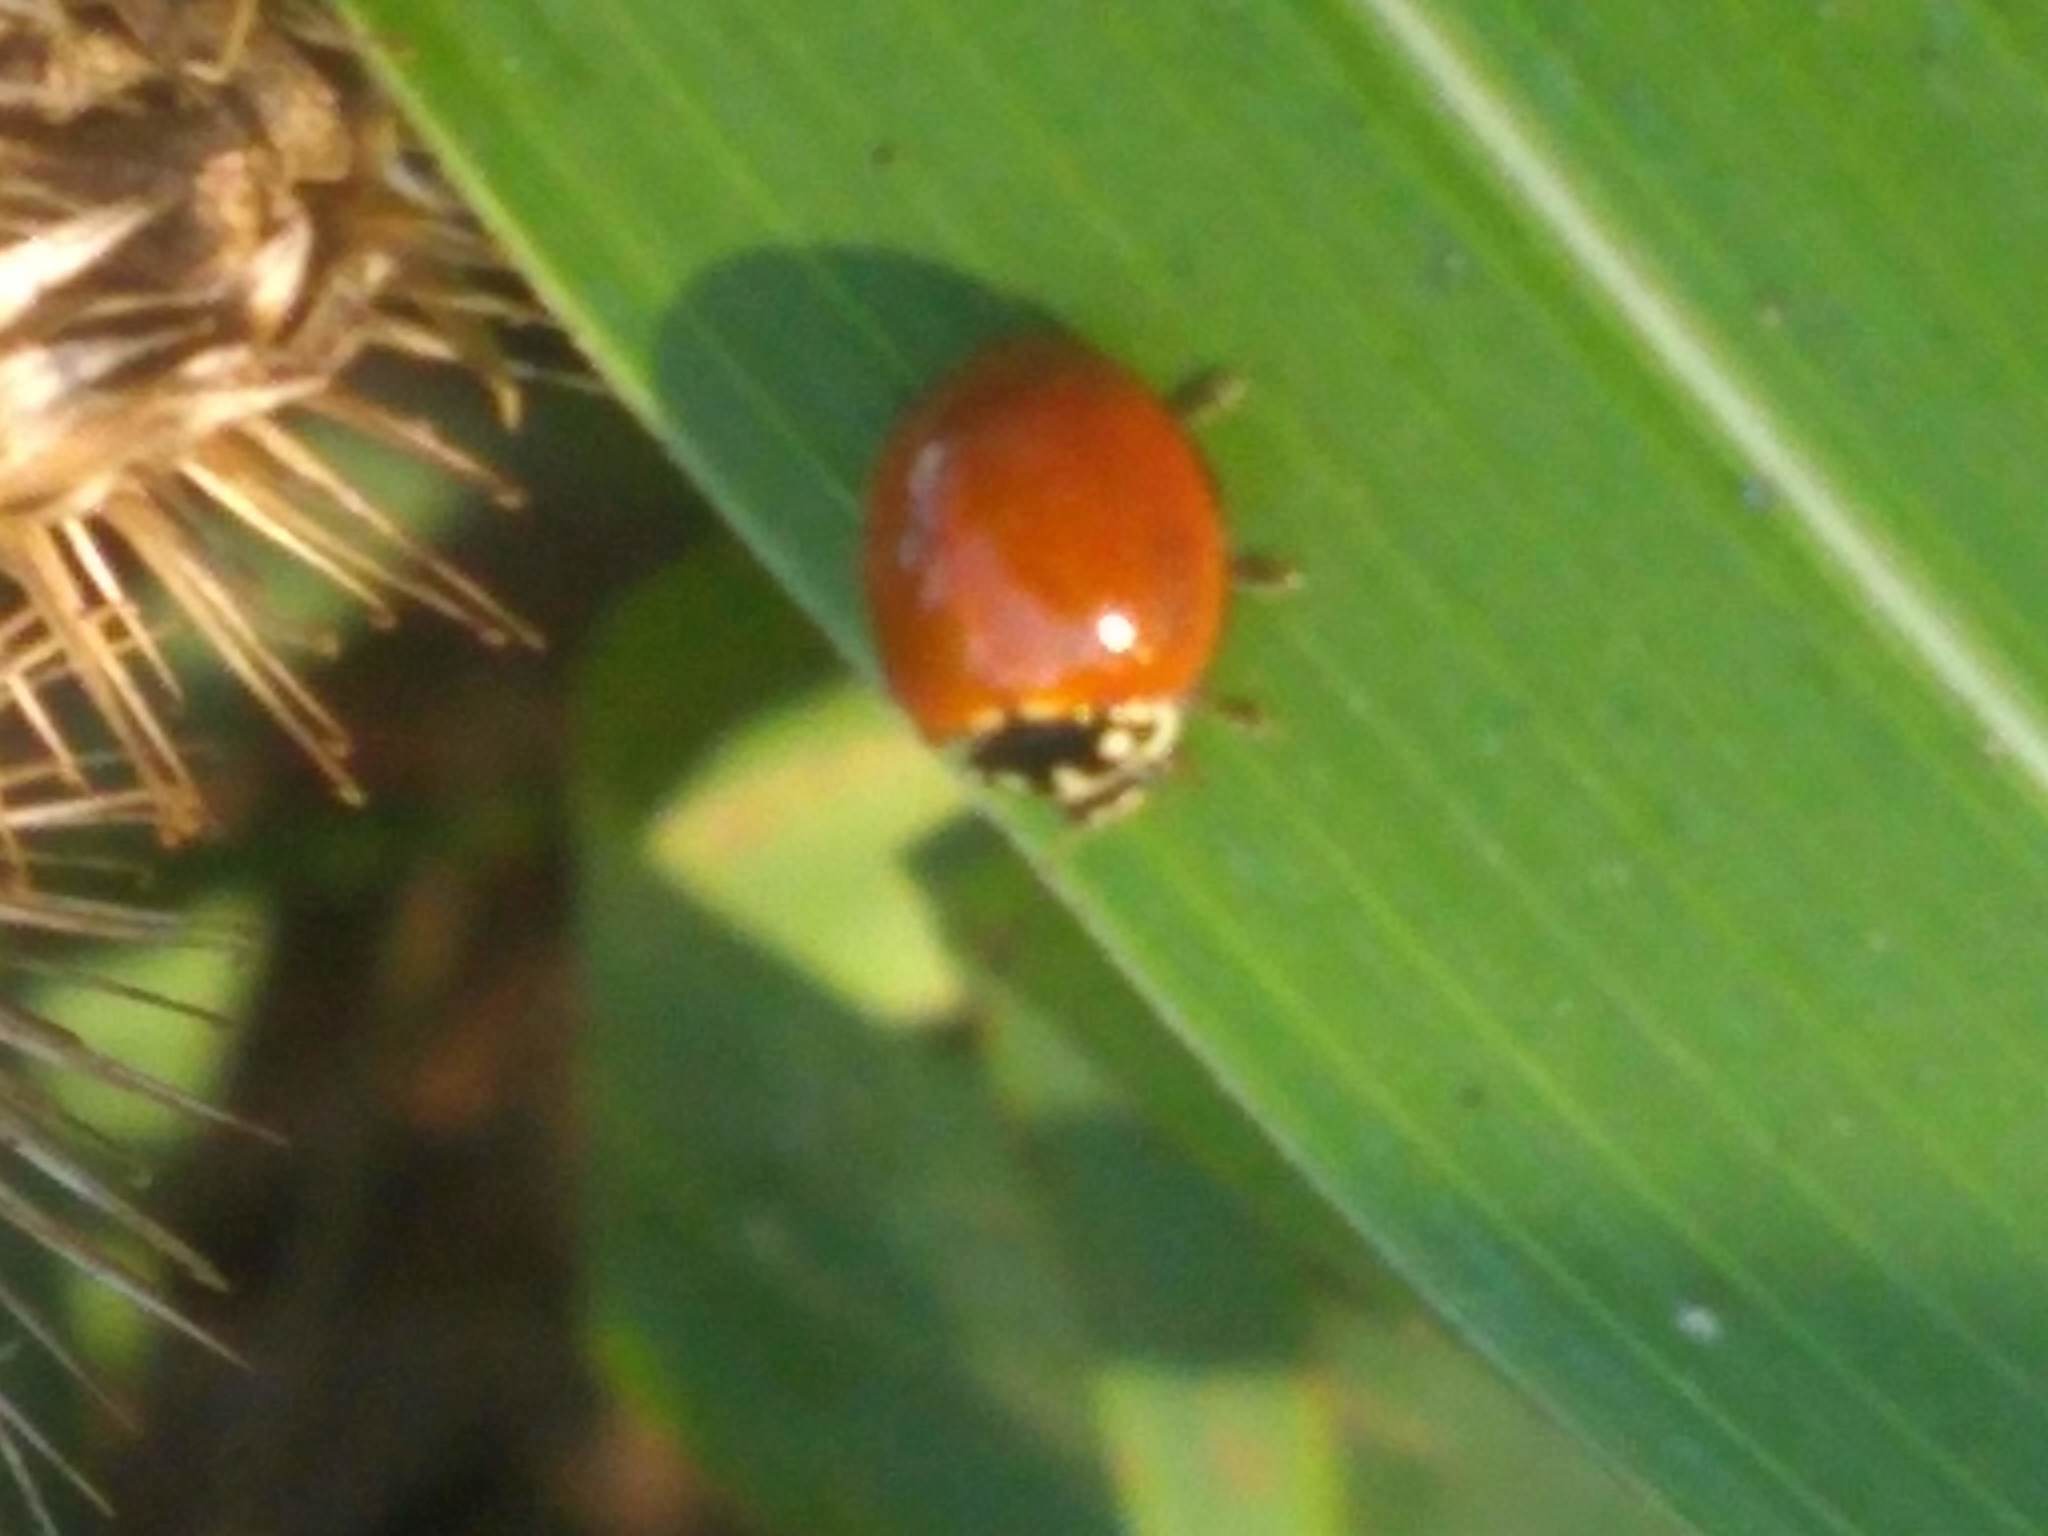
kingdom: Animalia
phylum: Arthropoda
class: Insecta
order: Coleoptera
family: Coccinellidae
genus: Cycloneda
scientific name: Cycloneda sanguinea
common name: Ladybird beetle
